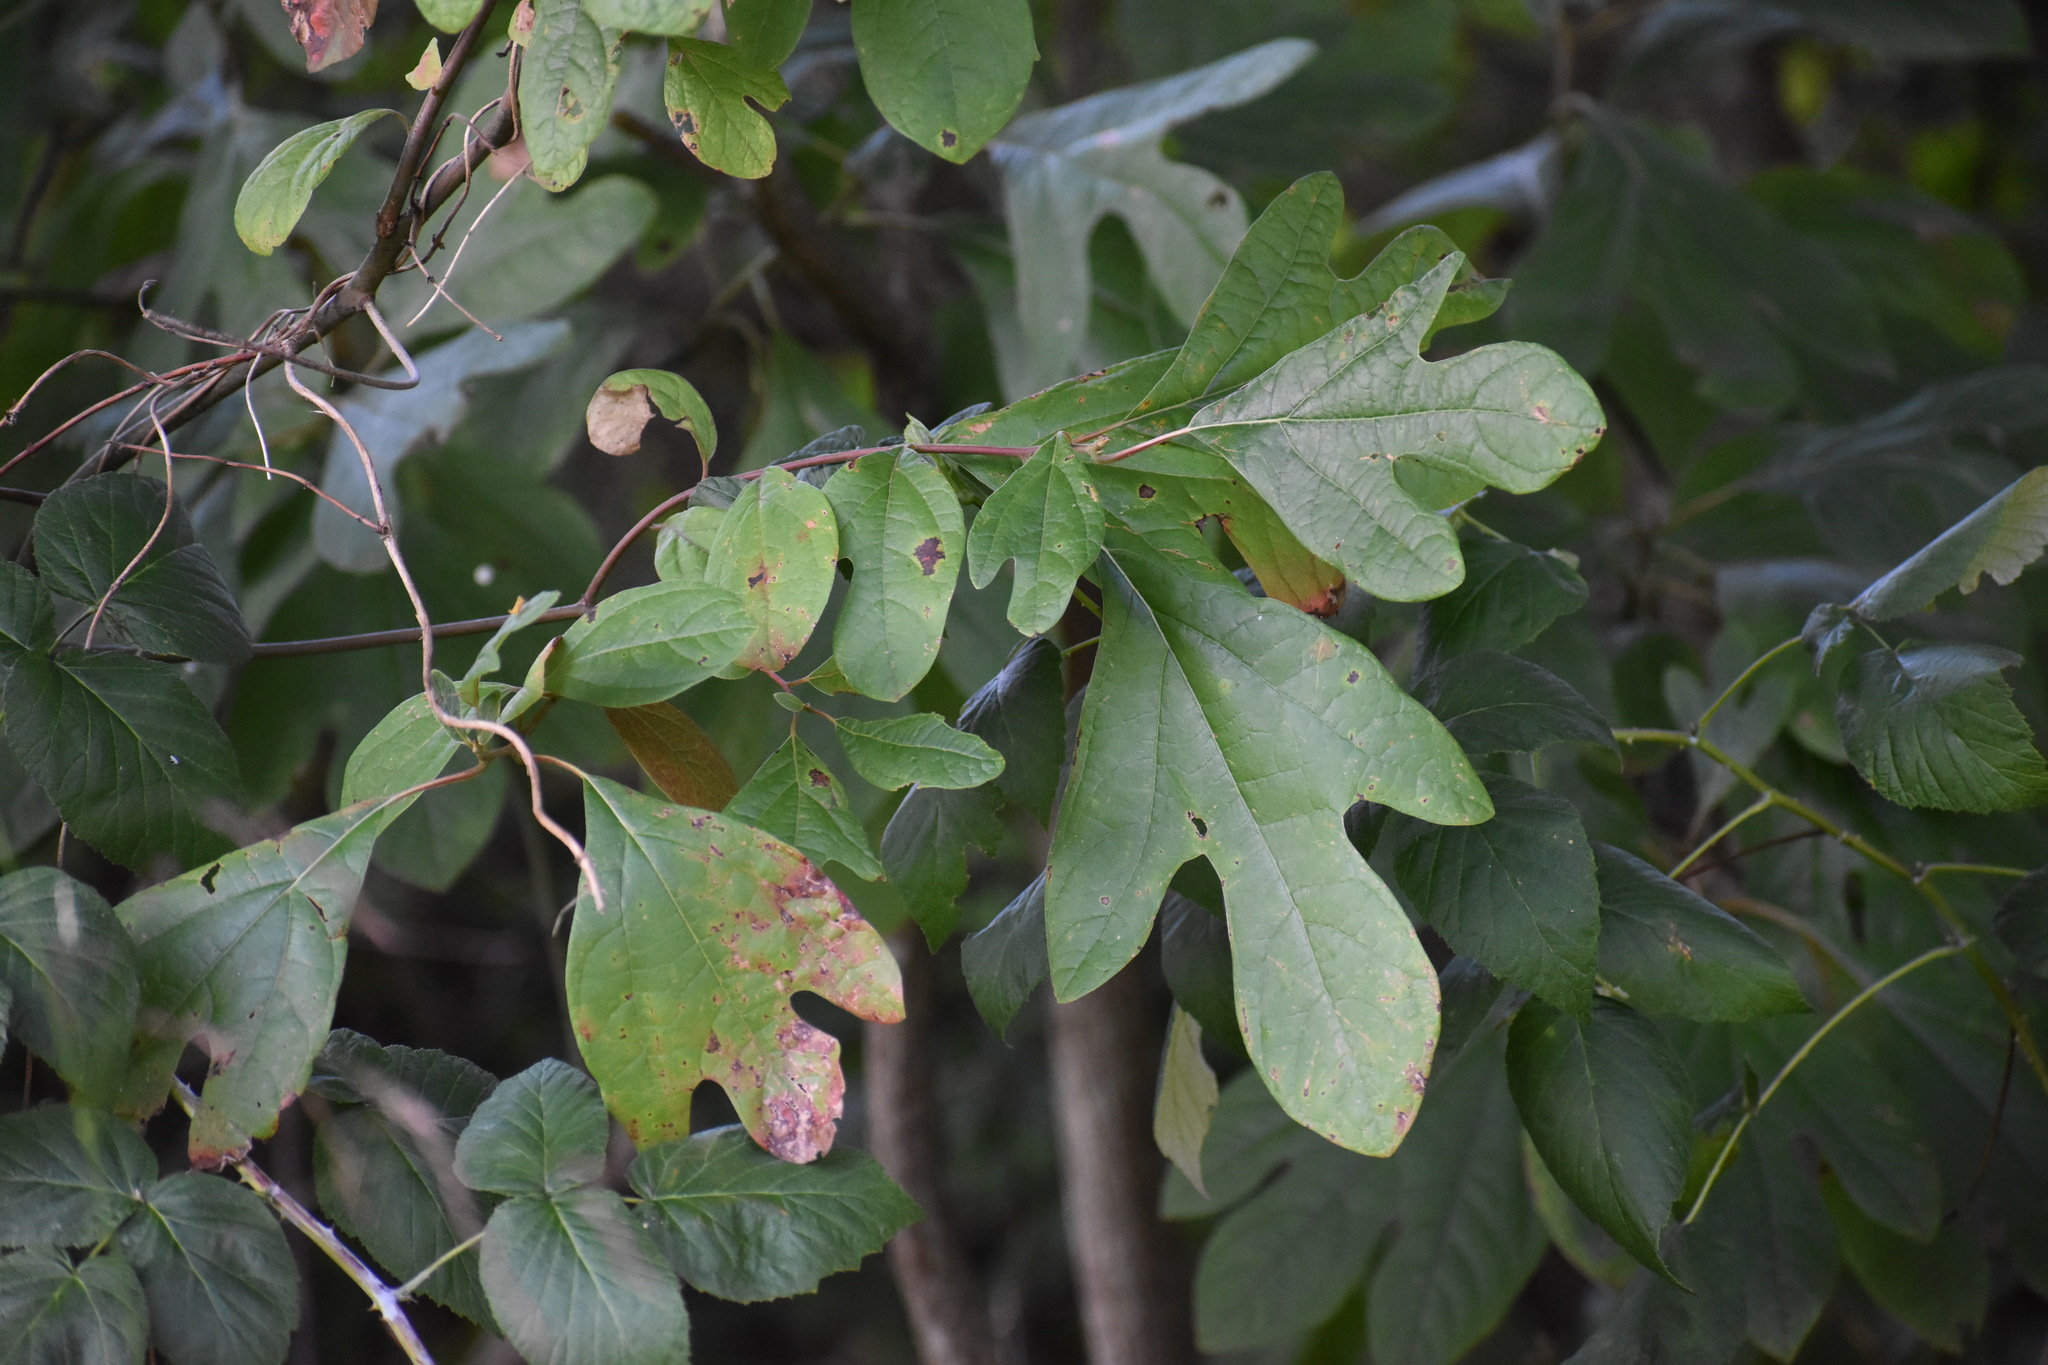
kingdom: Plantae
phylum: Tracheophyta
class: Magnoliopsida
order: Laurales
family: Lauraceae
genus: Sassafras
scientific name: Sassafras albidum
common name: Sassafras
